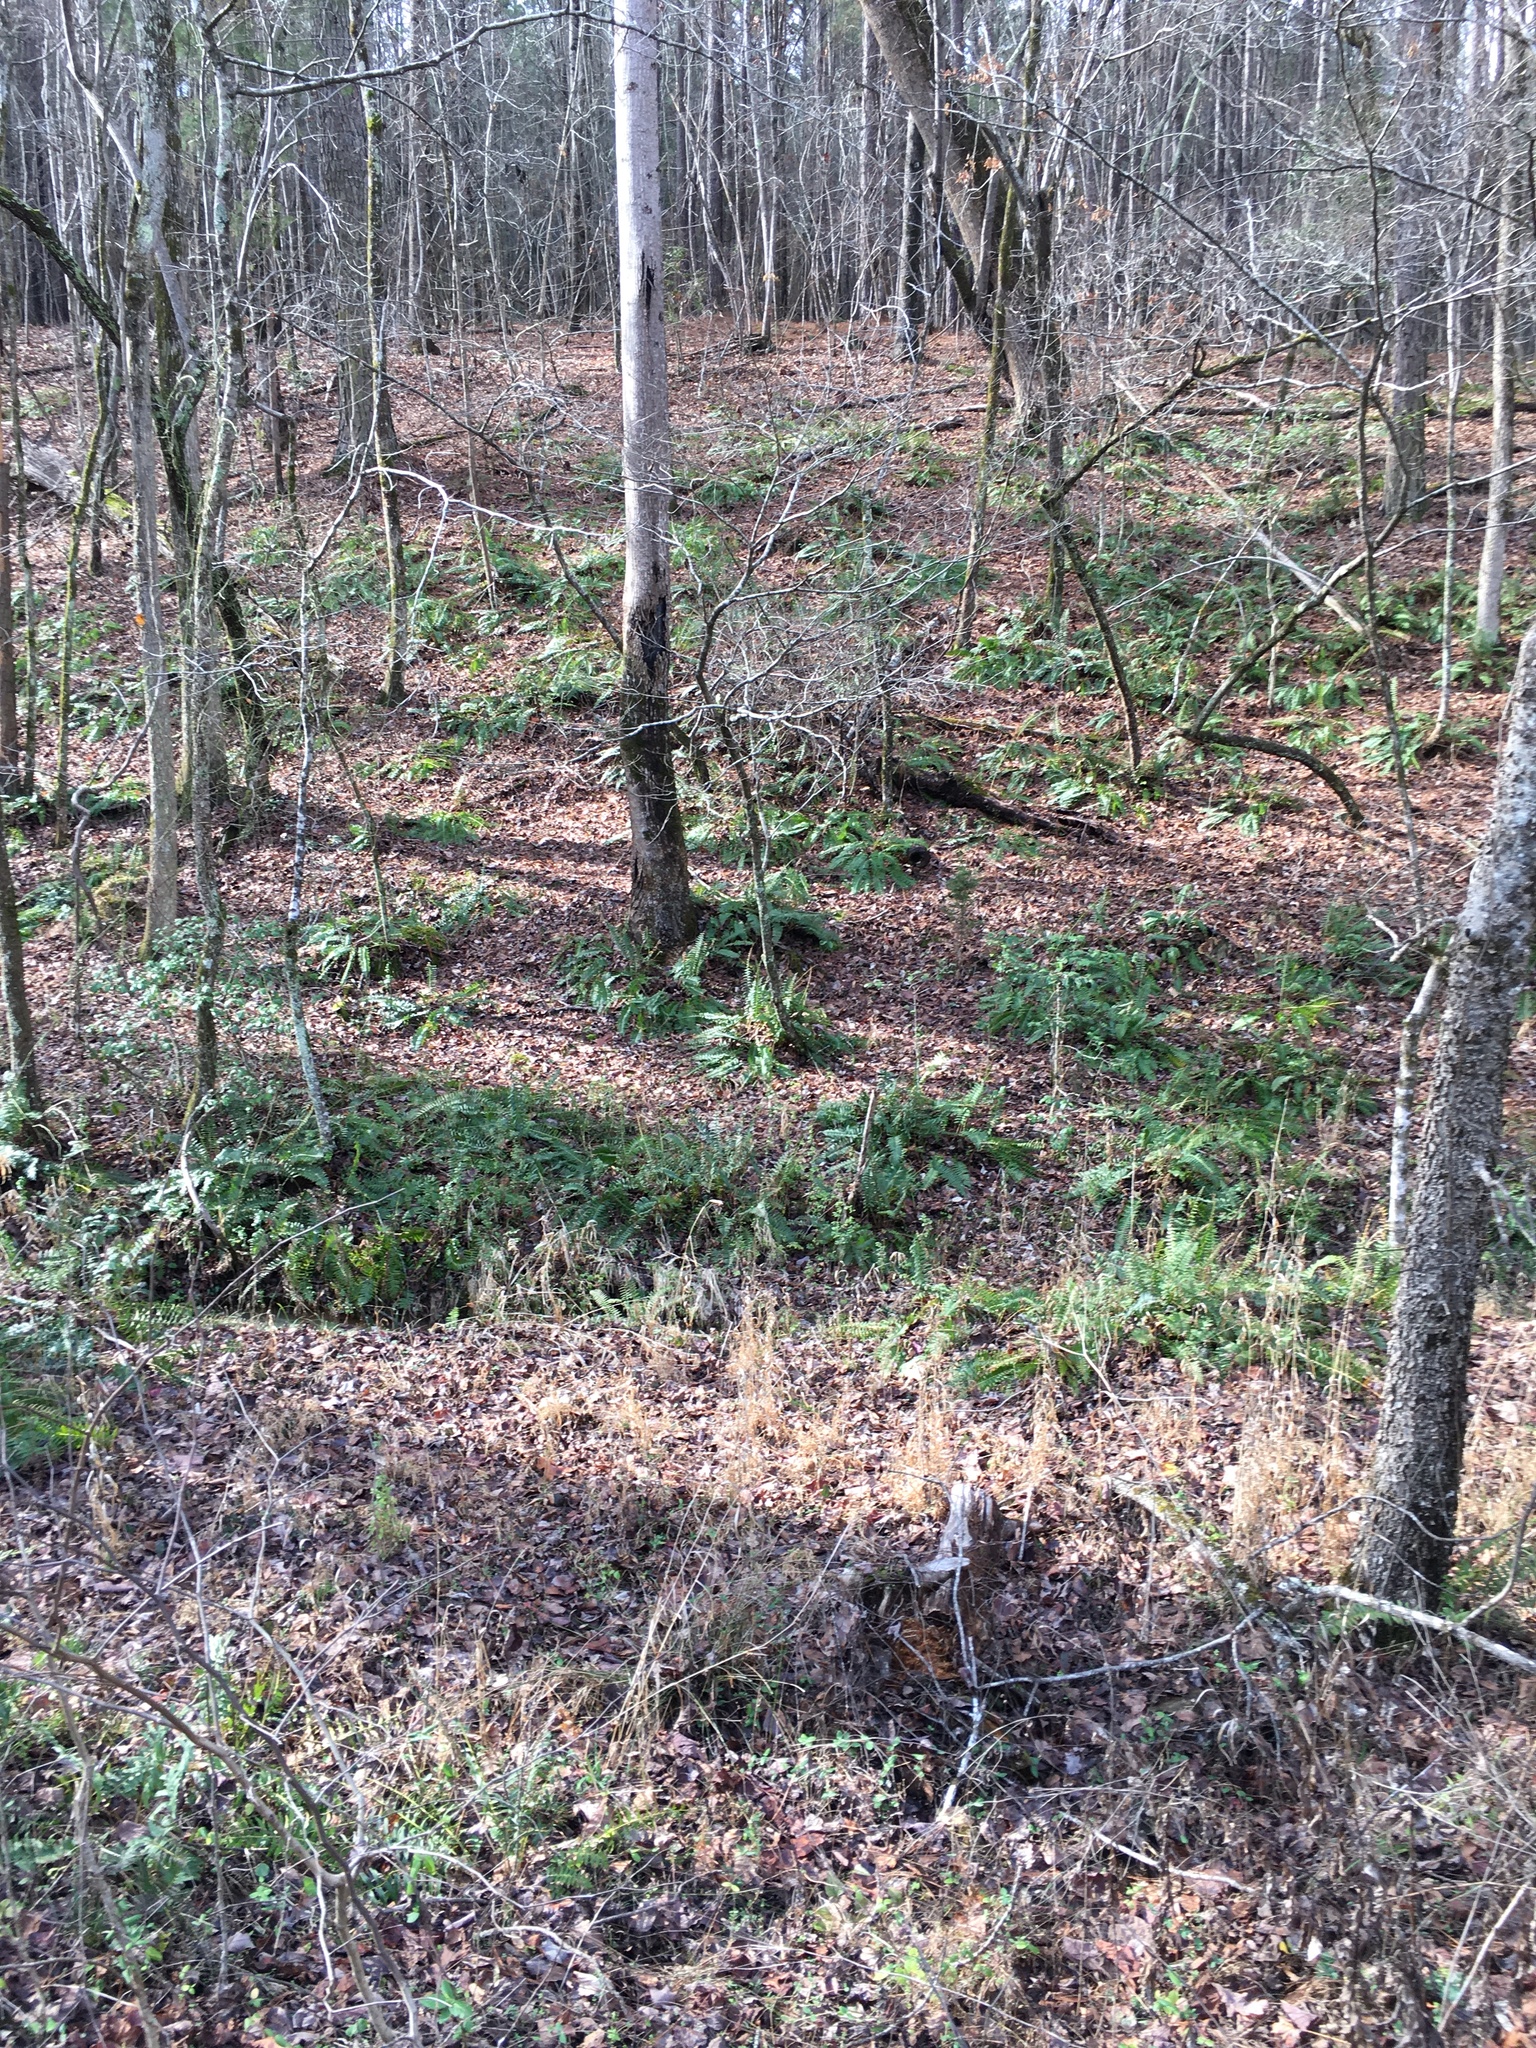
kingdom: Plantae
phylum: Tracheophyta
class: Polypodiopsida
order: Polypodiales
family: Dryopteridaceae
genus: Polystichum
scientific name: Polystichum acrostichoides
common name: Christmas fern
